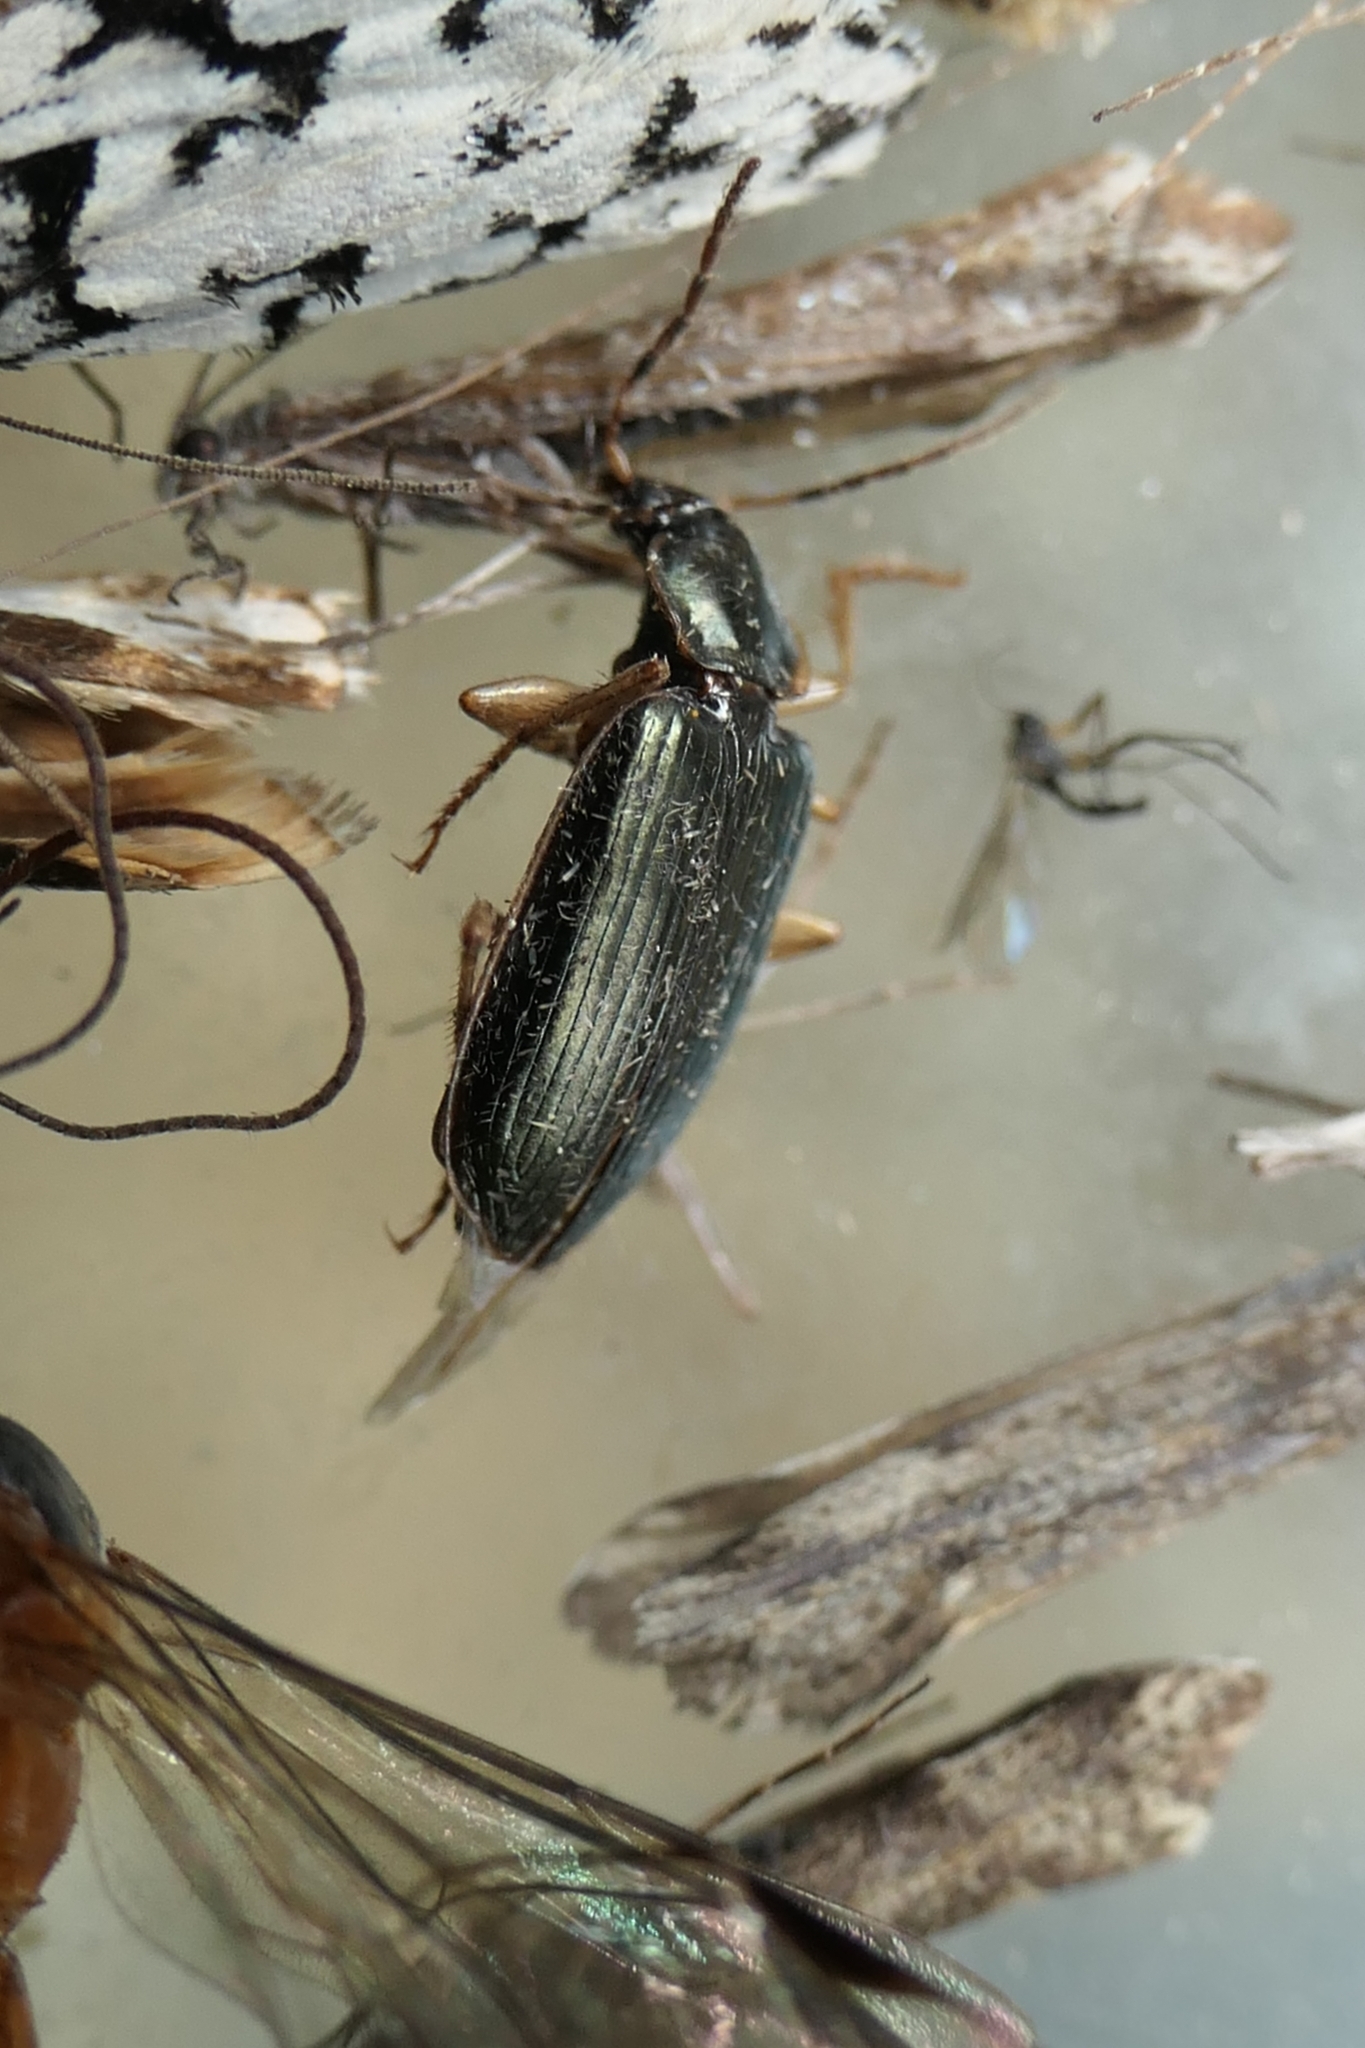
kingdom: Animalia
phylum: Arthropoda
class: Insecta
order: Coleoptera
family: Carabidae
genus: Notagonum
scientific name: Notagonum submetallicum
